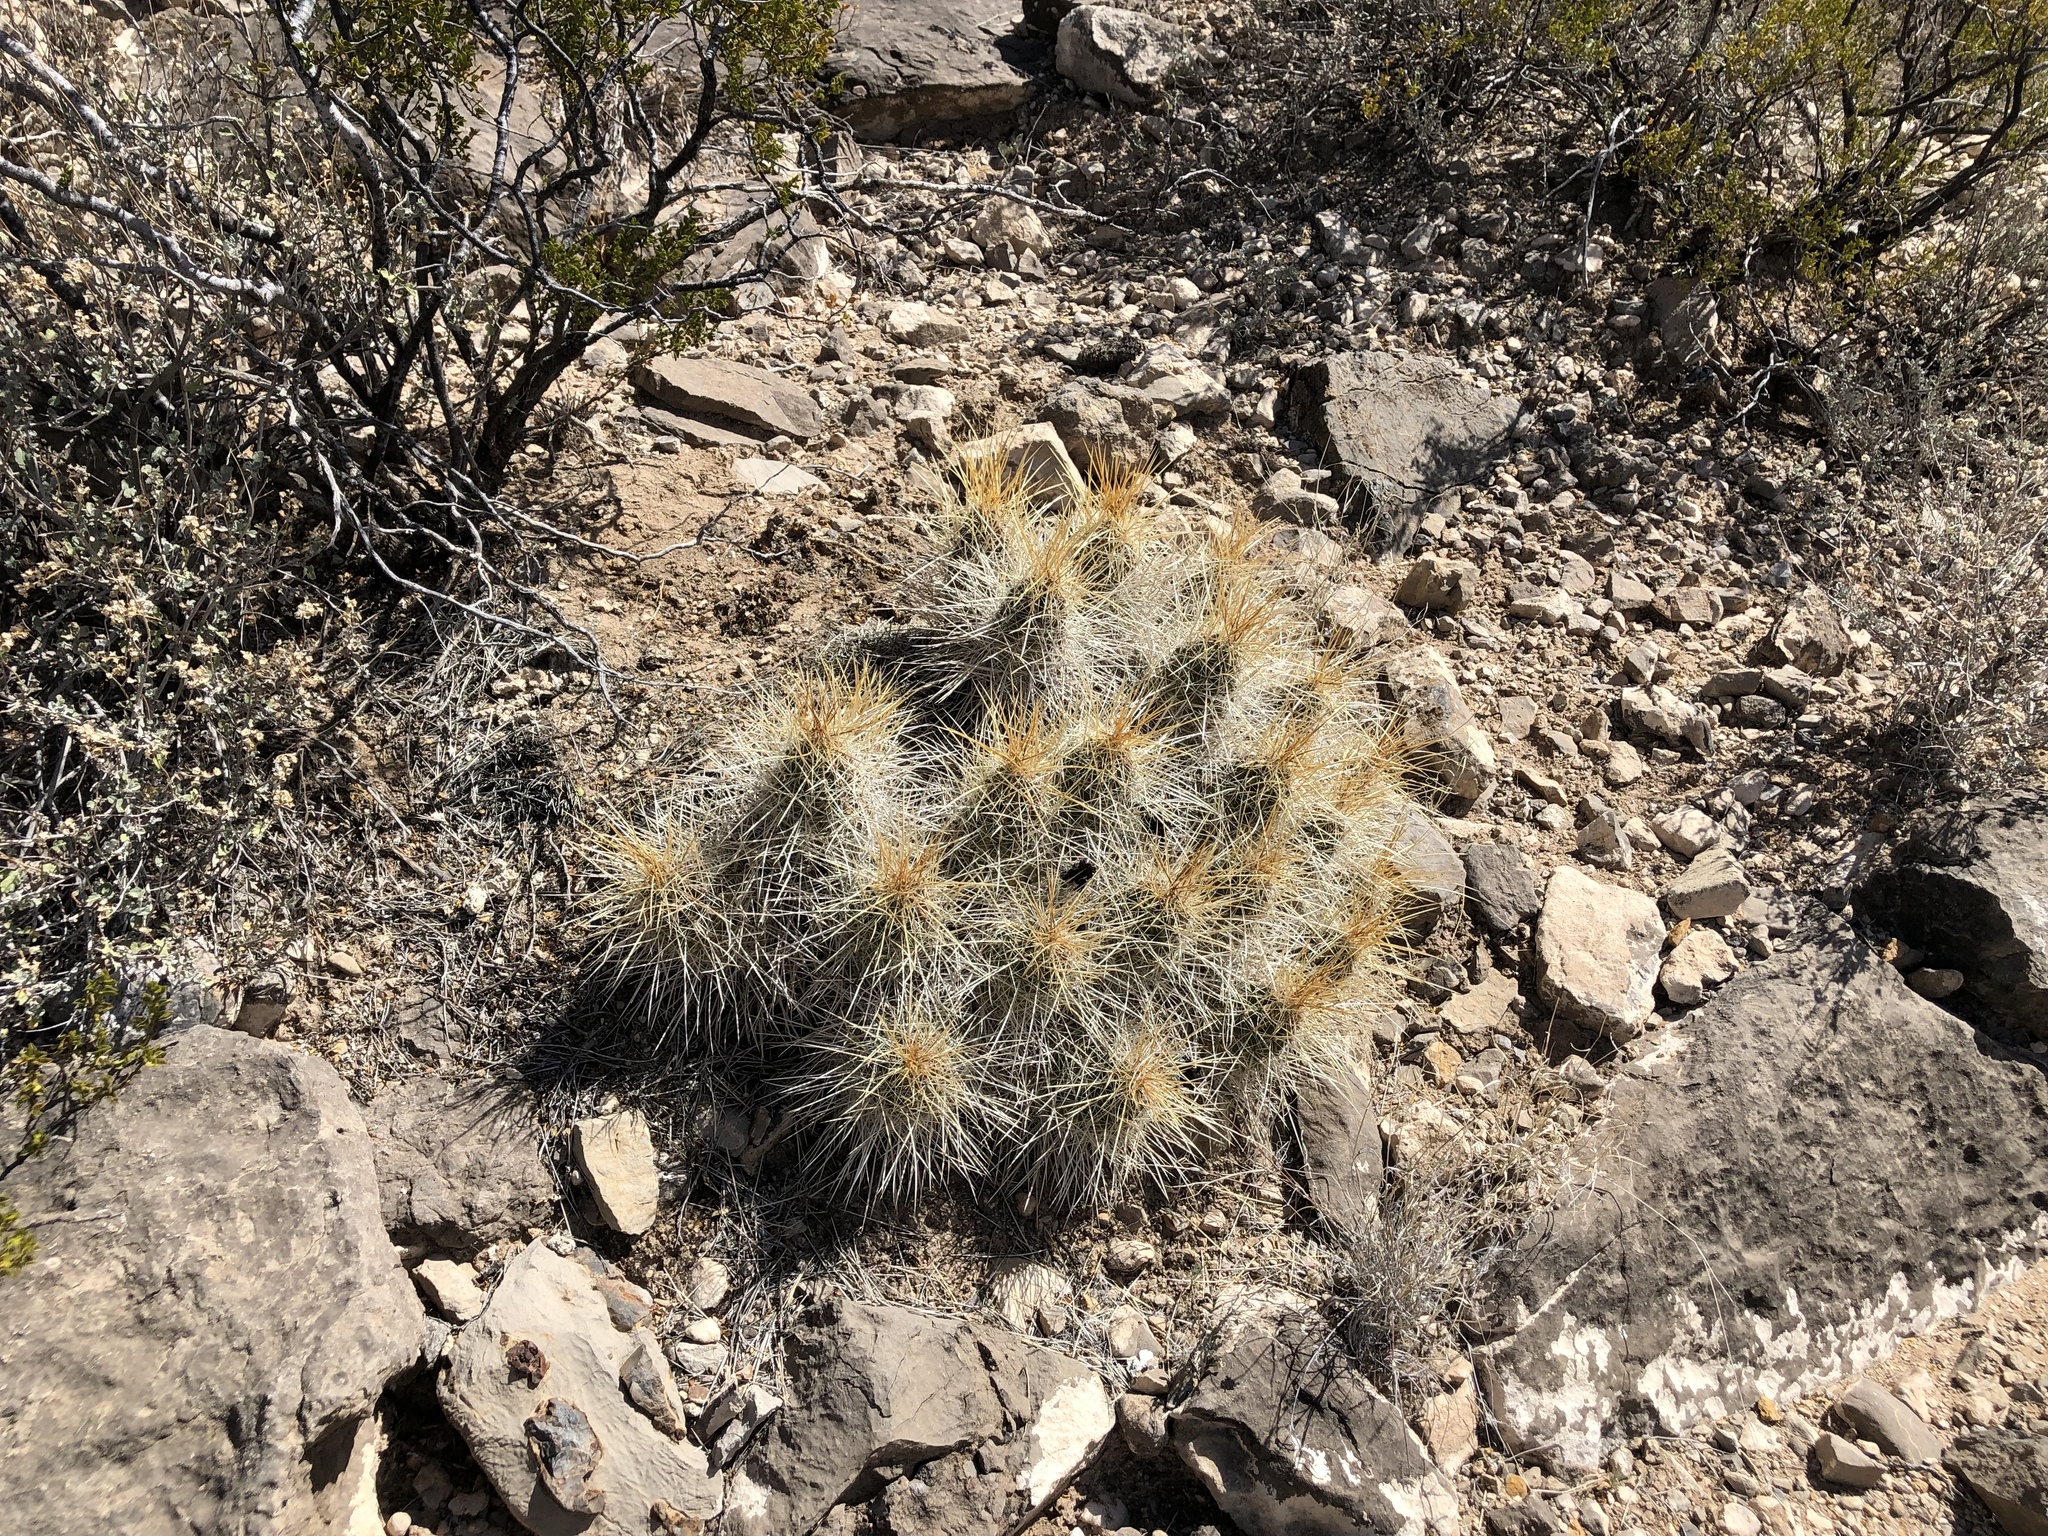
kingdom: Plantae
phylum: Tracheophyta
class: Magnoliopsida
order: Caryophyllales
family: Cactaceae
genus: Echinocereus
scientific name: Echinocereus stramineus
